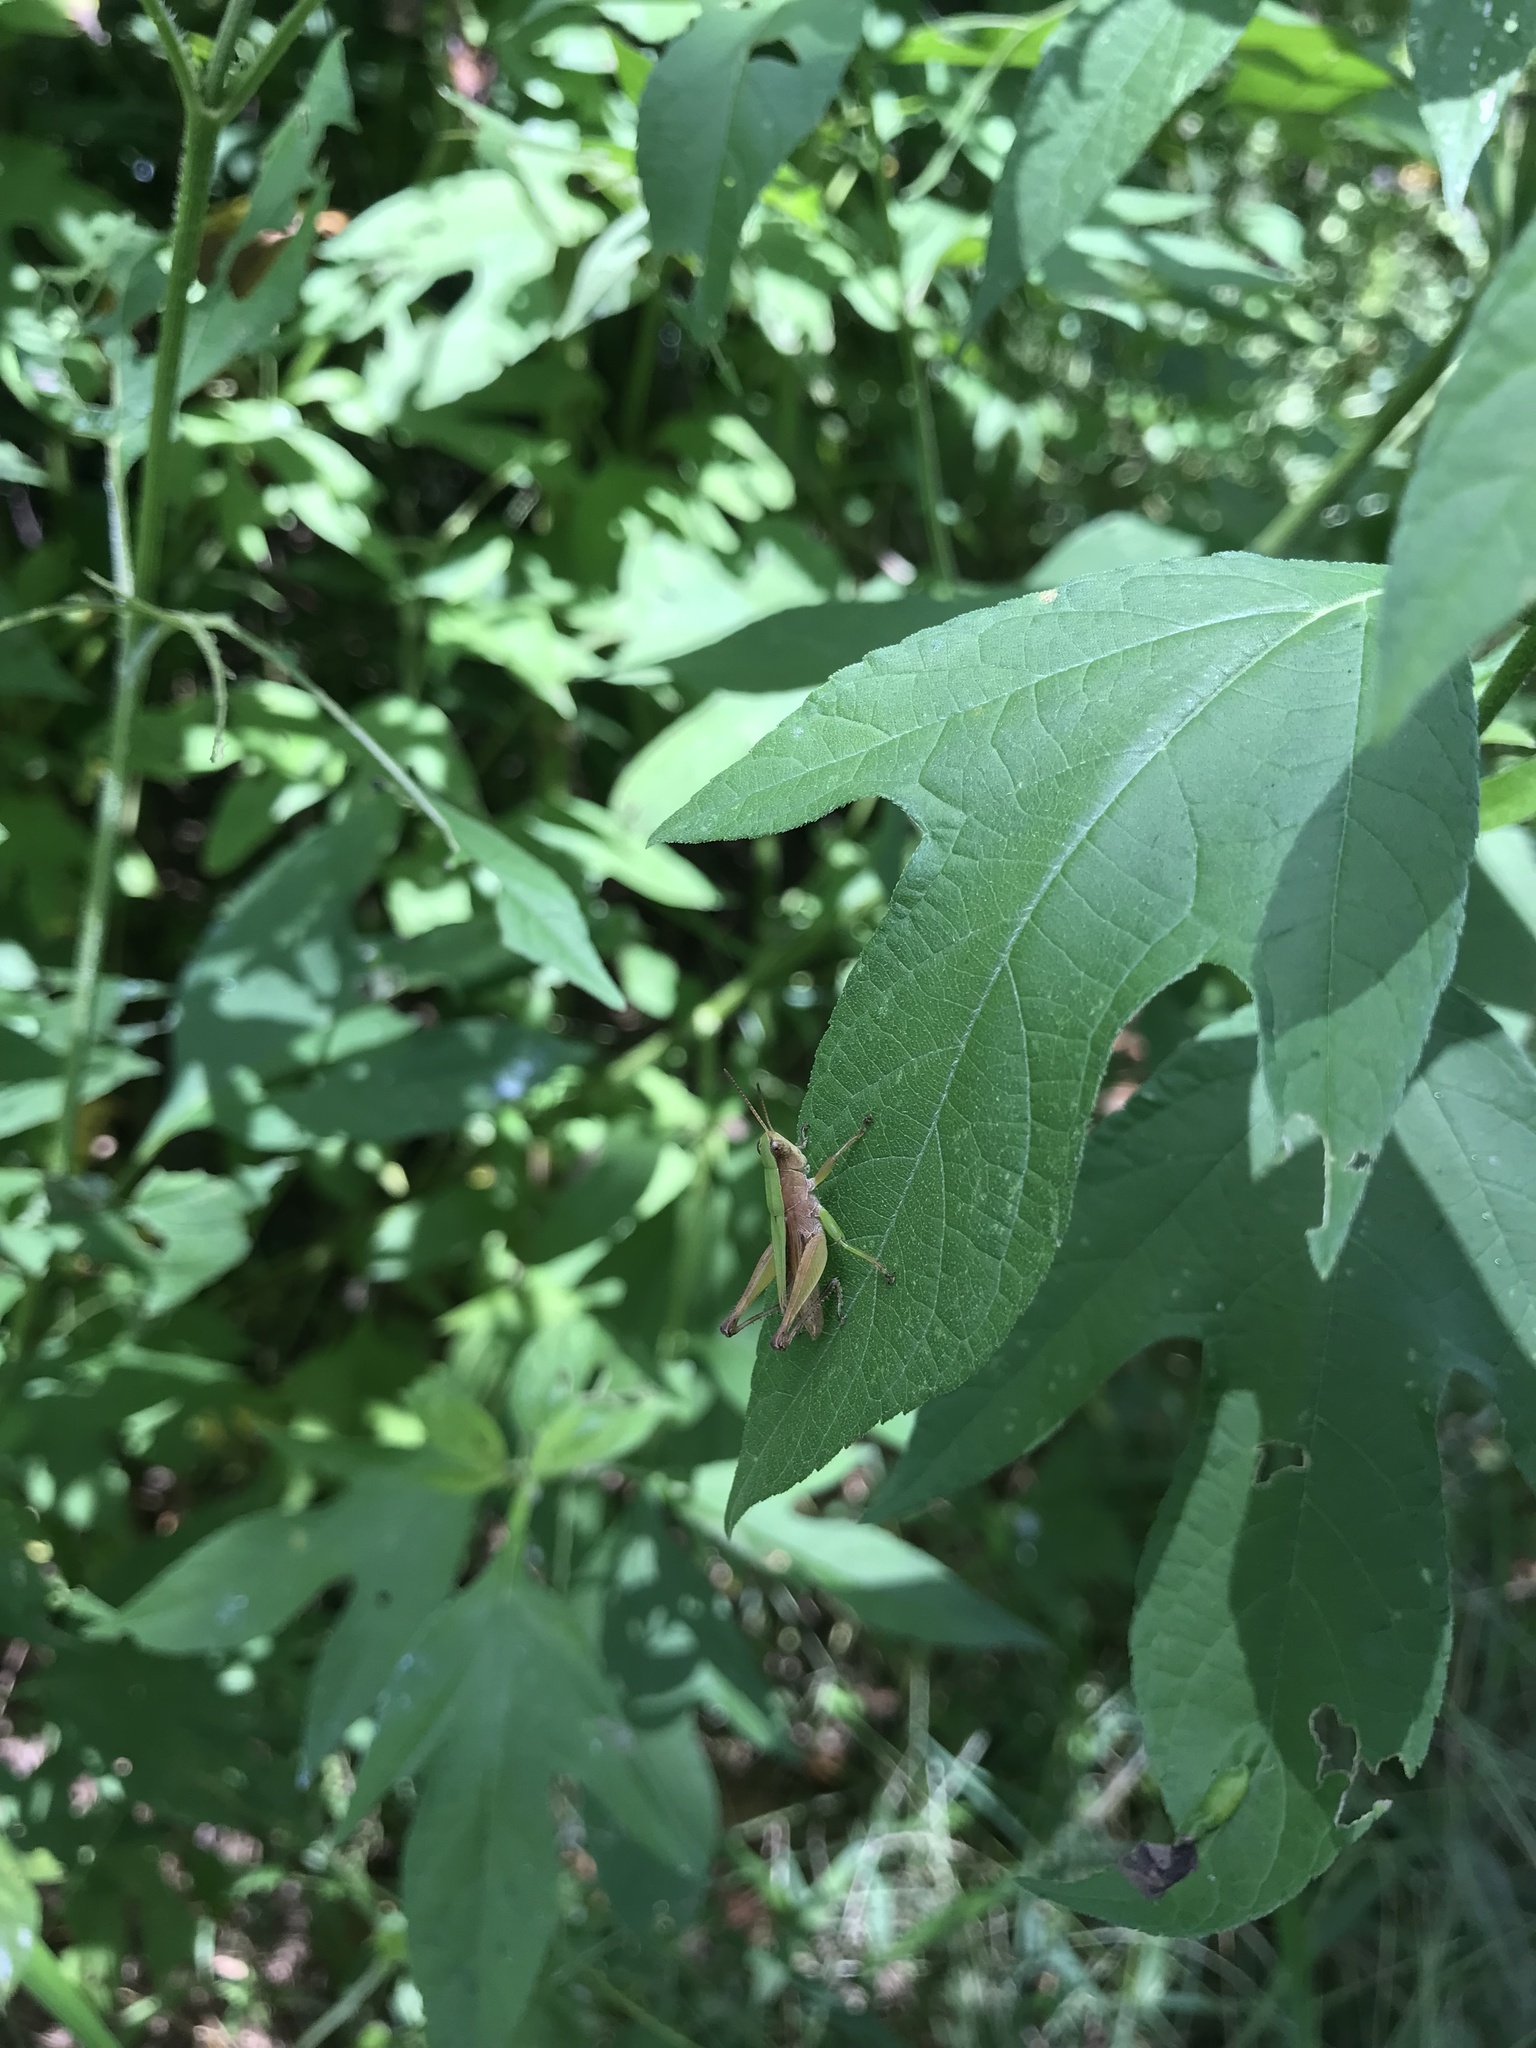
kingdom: Animalia
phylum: Arthropoda
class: Insecta
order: Orthoptera
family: Acrididae
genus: Dichromorpha
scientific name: Dichromorpha viridis
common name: Short-winged green grasshopper
